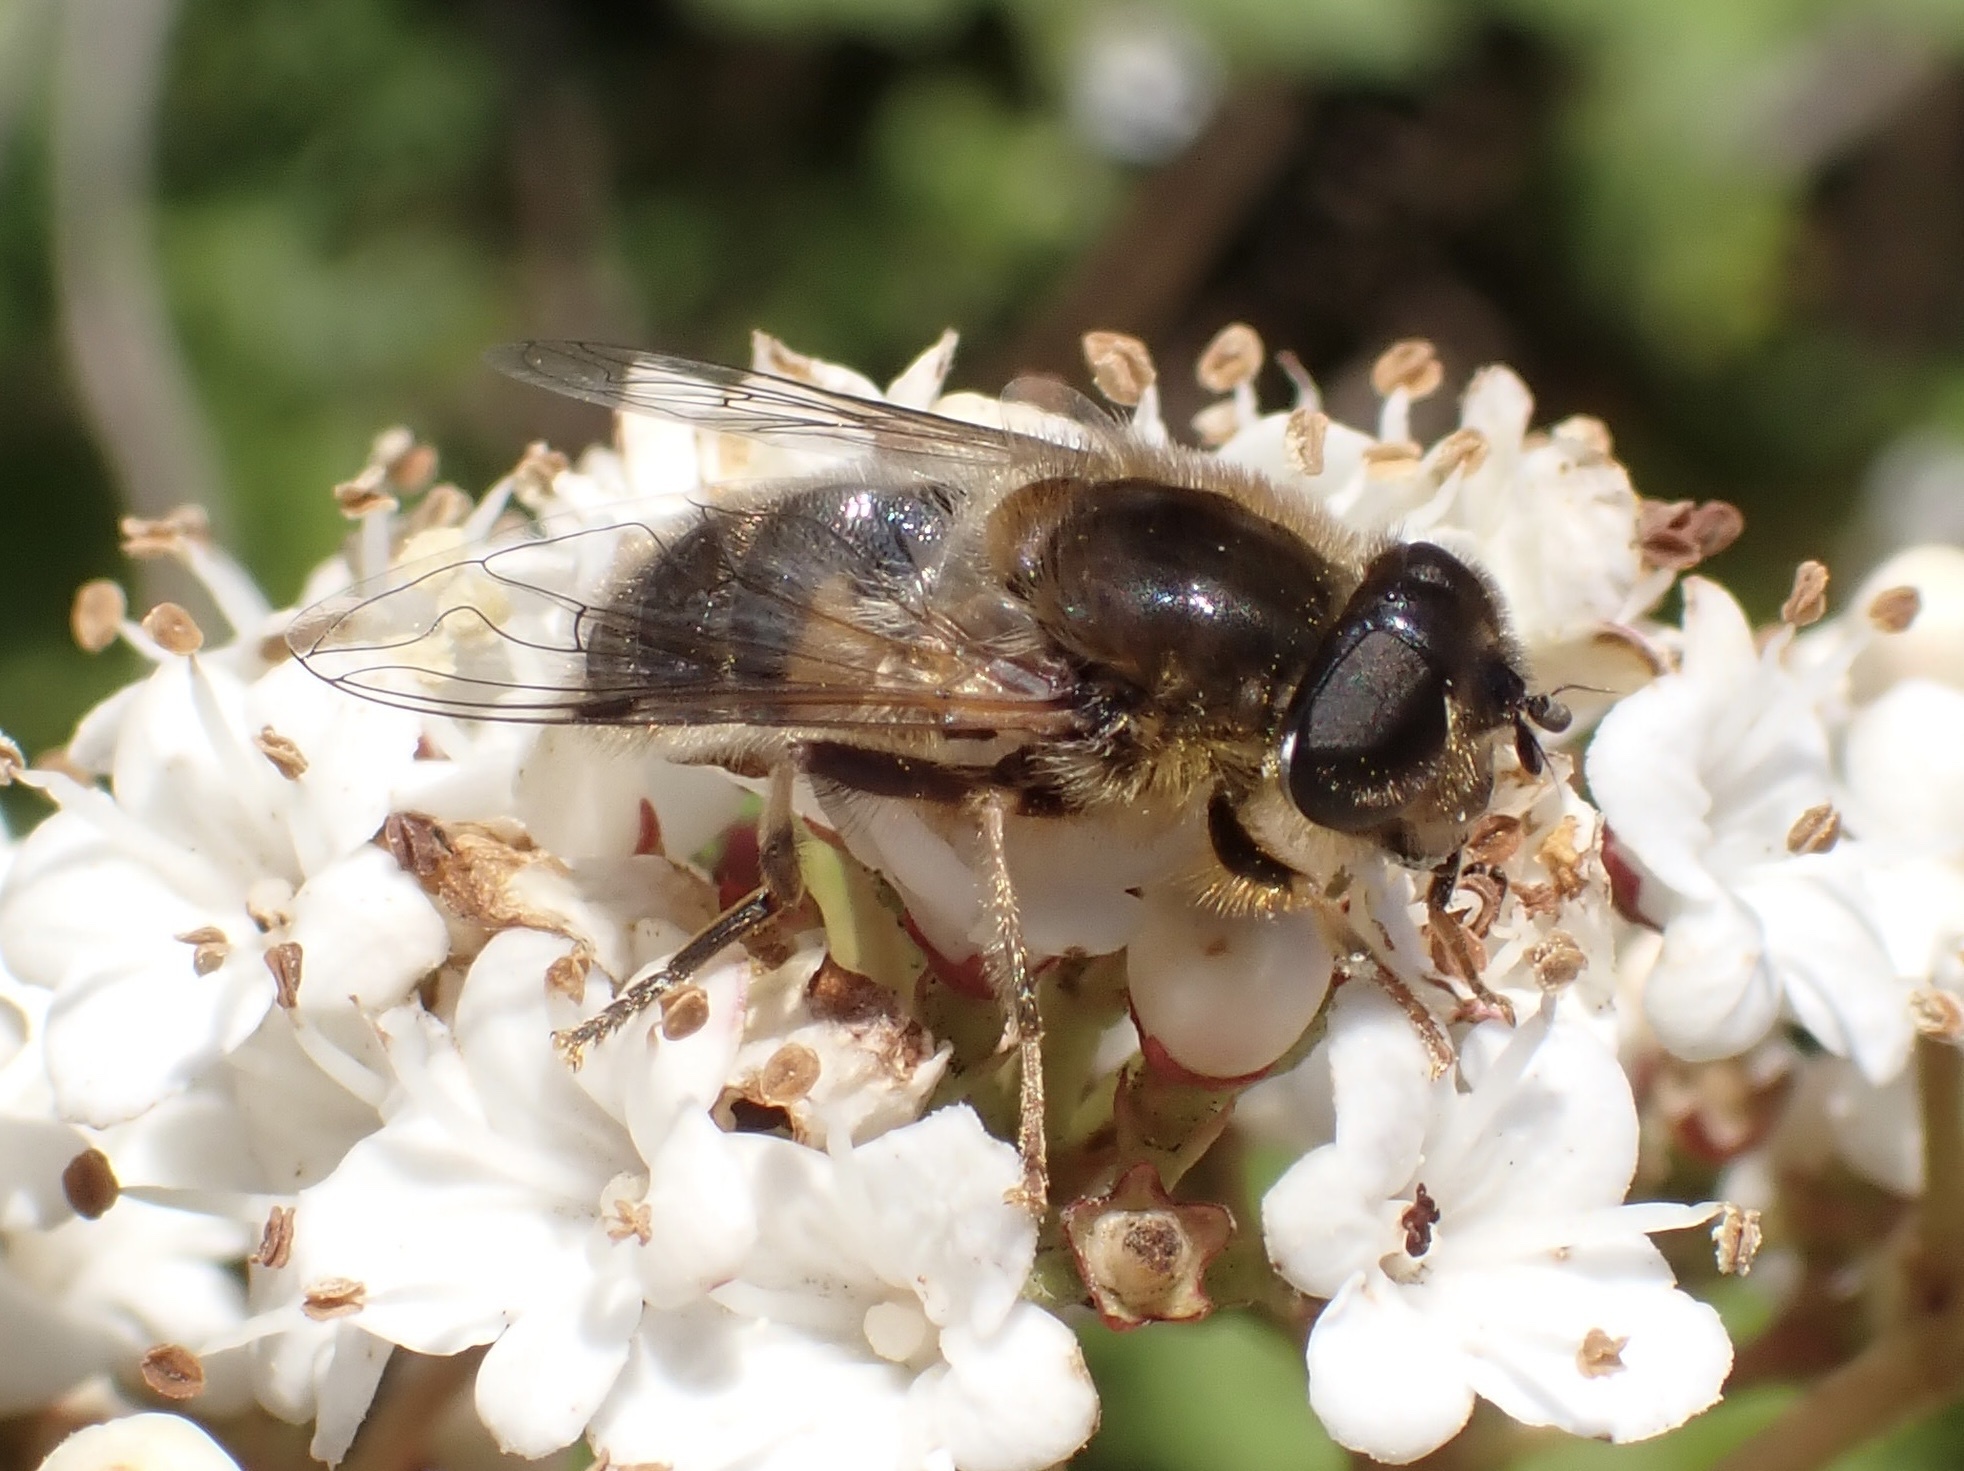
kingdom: Animalia
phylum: Arthropoda
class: Insecta
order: Diptera
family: Syrphidae
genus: Eristalis
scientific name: Eristalis pertinax
